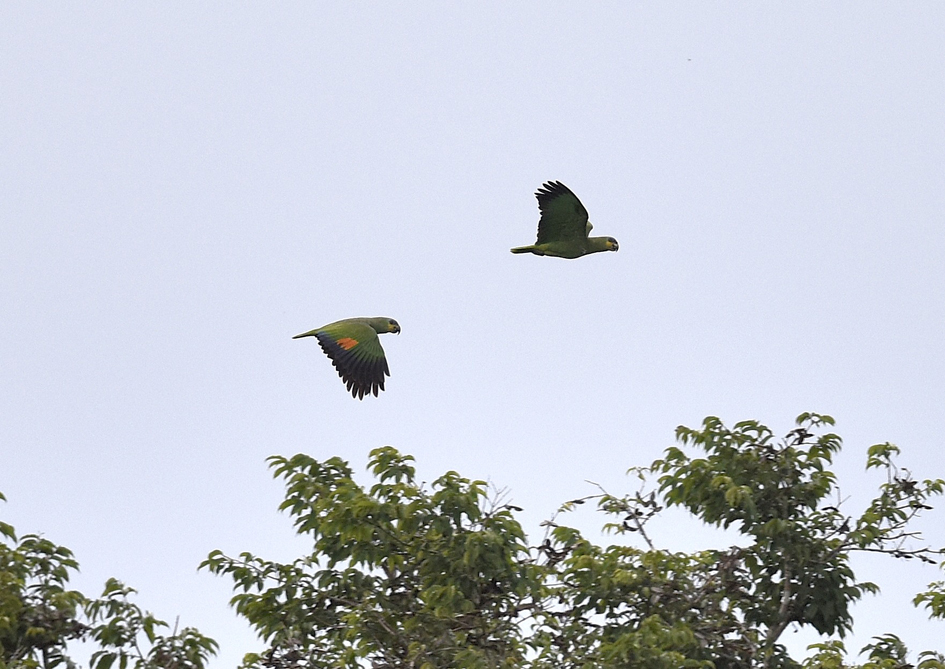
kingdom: Animalia
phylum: Chordata
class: Aves
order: Psittaciformes
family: Psittacidae
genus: Amazona
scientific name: Amazona amazonica
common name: Orange-winged amazon
